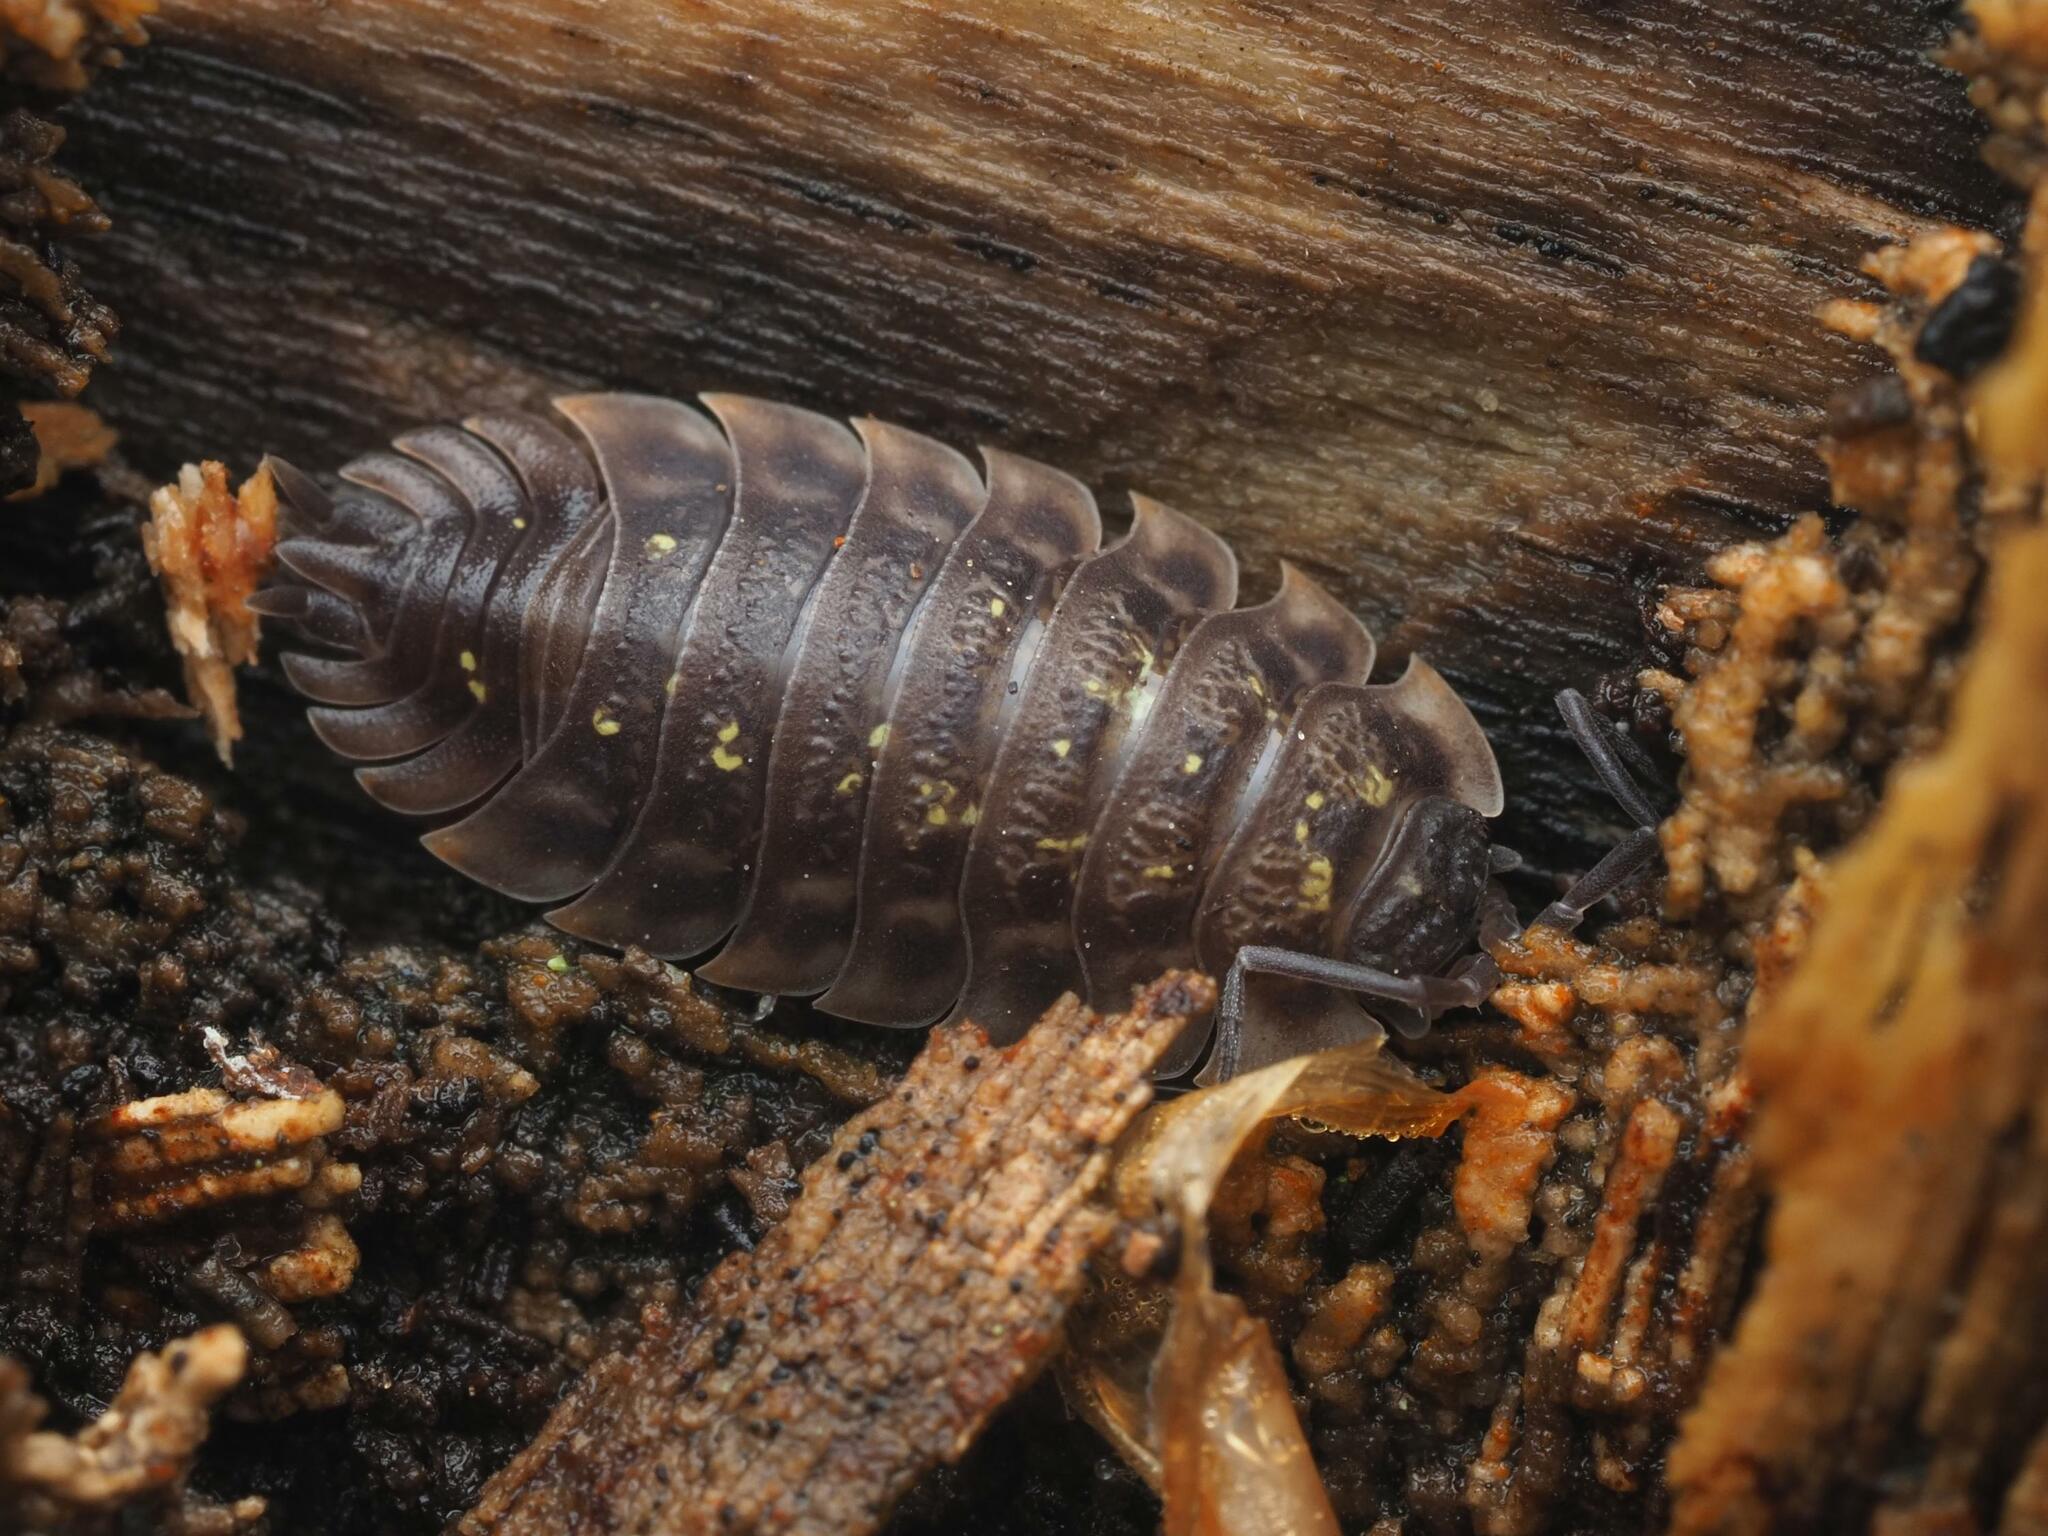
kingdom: Animalia
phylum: Arthropoda
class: Malacostraca
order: Isopoda
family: Oniscidae
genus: Oniscus
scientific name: Oniscus asellus
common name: Common shiny woodlouse
